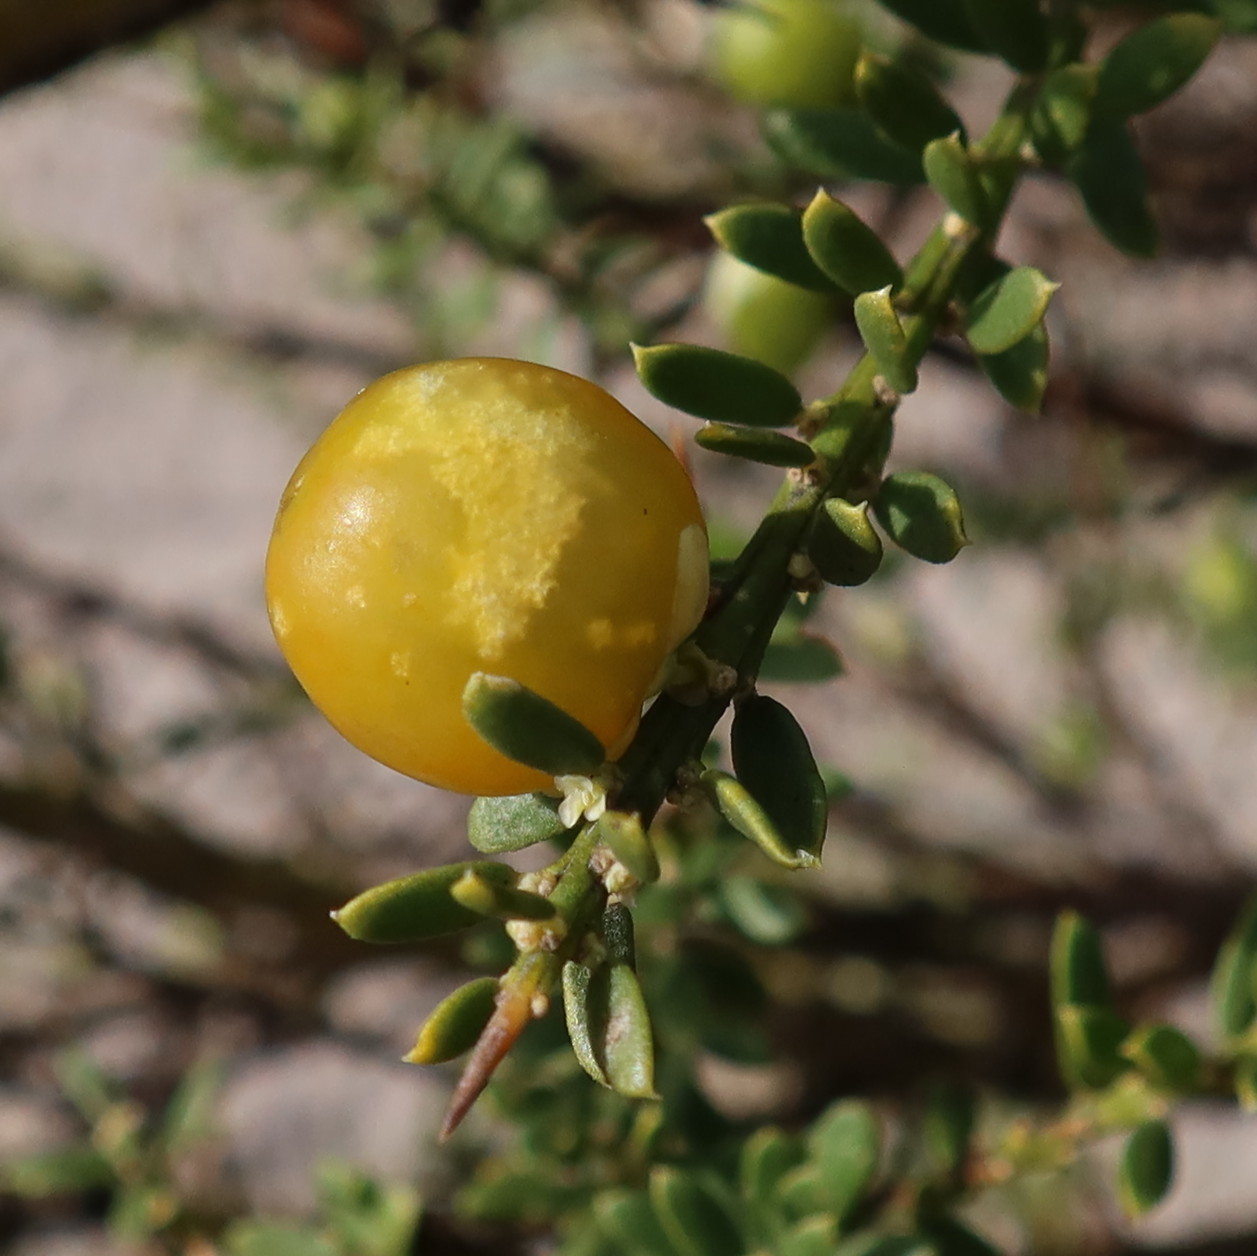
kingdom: Plantae
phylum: Tracheophyta
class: Magnoliopsida
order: Fabales
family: Polygalaceae
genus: Muraltia
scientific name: Muraltia spinosa
